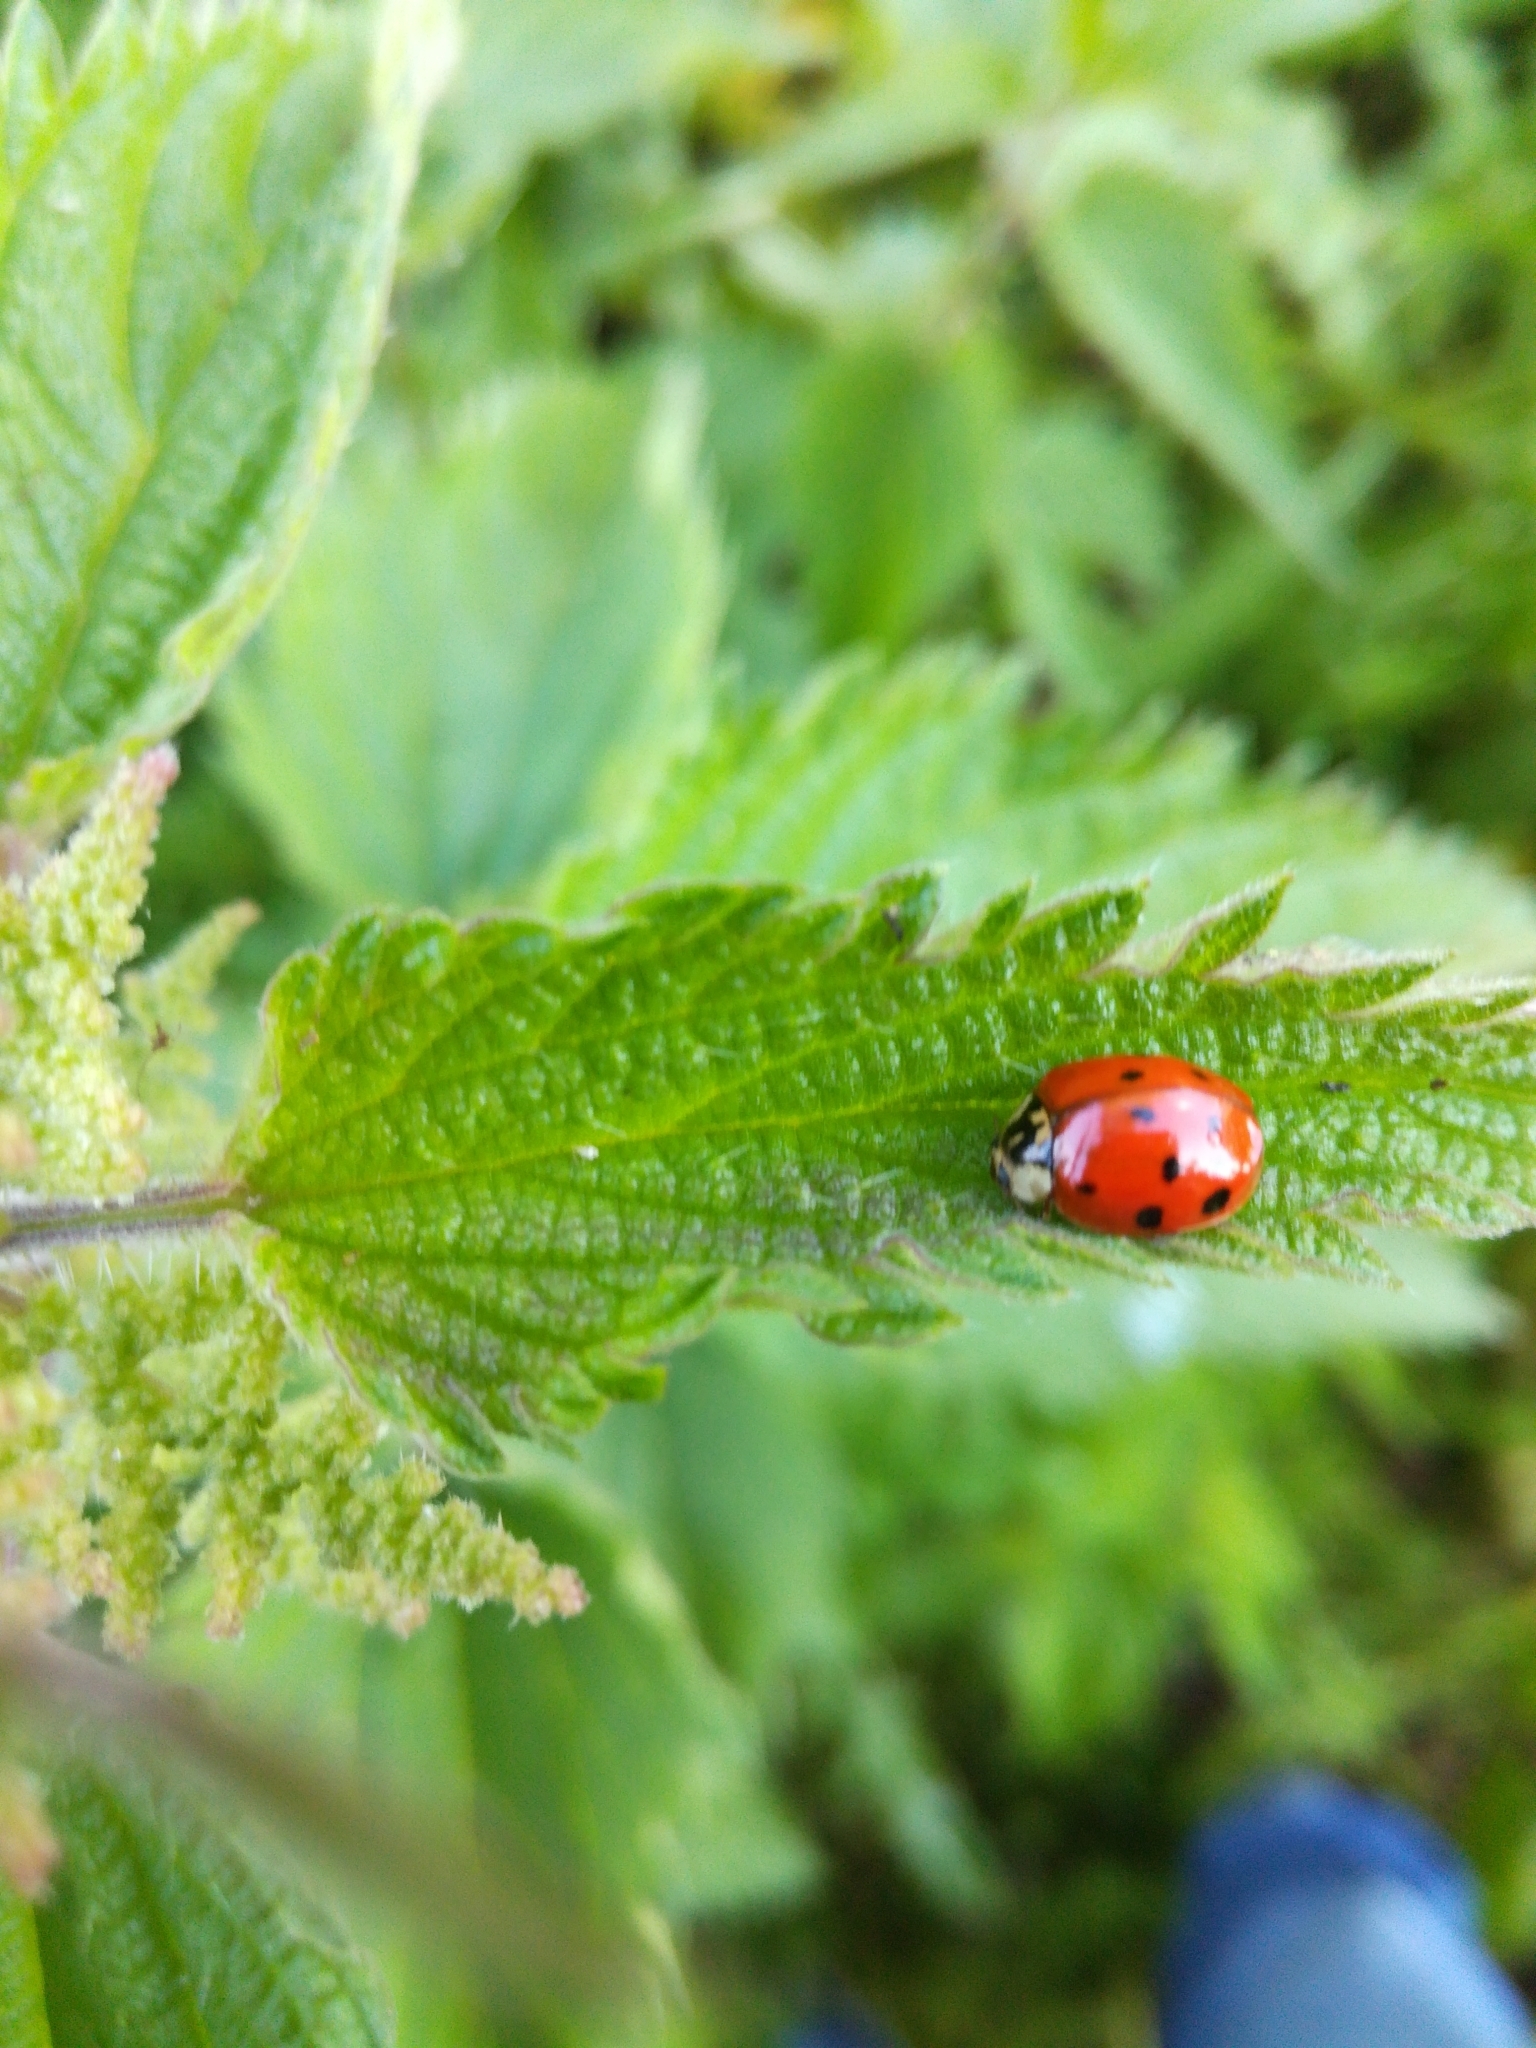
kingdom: Animalia
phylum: Arthropoda
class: Insecta
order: Coleoptera
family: Coccinellidae
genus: Harmonia
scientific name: Harmonia axyridis
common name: Harlequin ladybird
